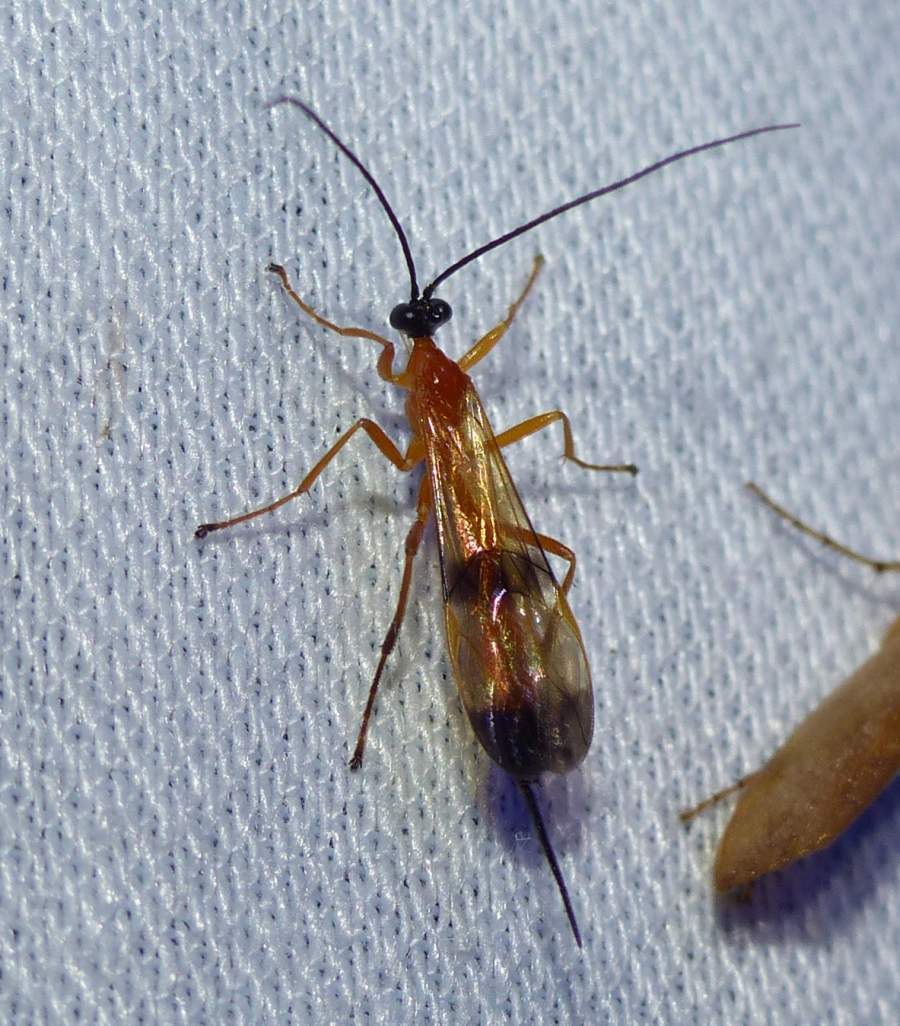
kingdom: Animalia
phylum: Arthropoda
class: Insecta
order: Hymenoptera
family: Ichneumonidae
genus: Acrotaphus
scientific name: Acrotaphus wiltii
